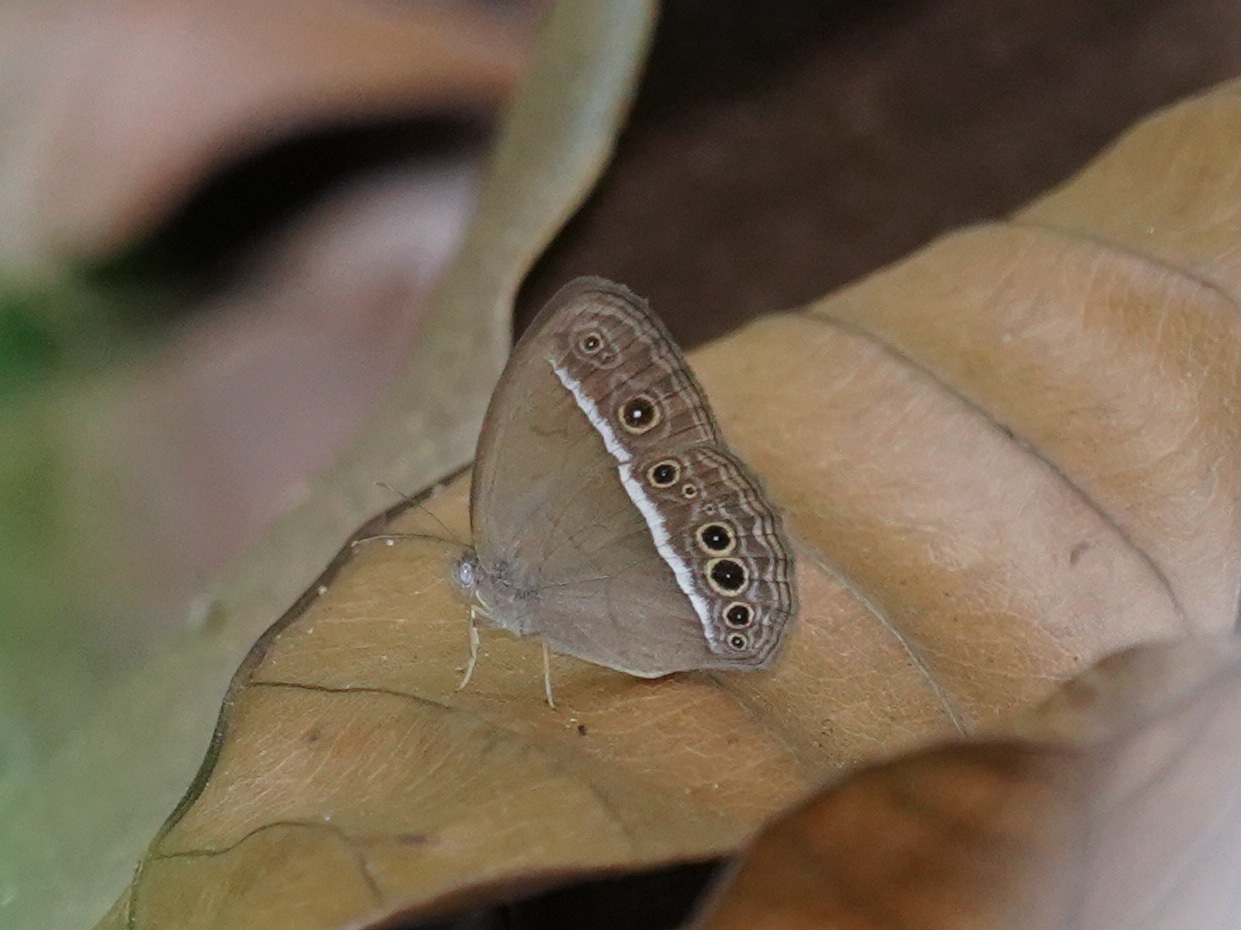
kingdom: Animalia
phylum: Arthropoda
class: Insecta
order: Lepidoptera
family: Nymphalidae
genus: Mycalesis
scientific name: Mycalesis mineus
